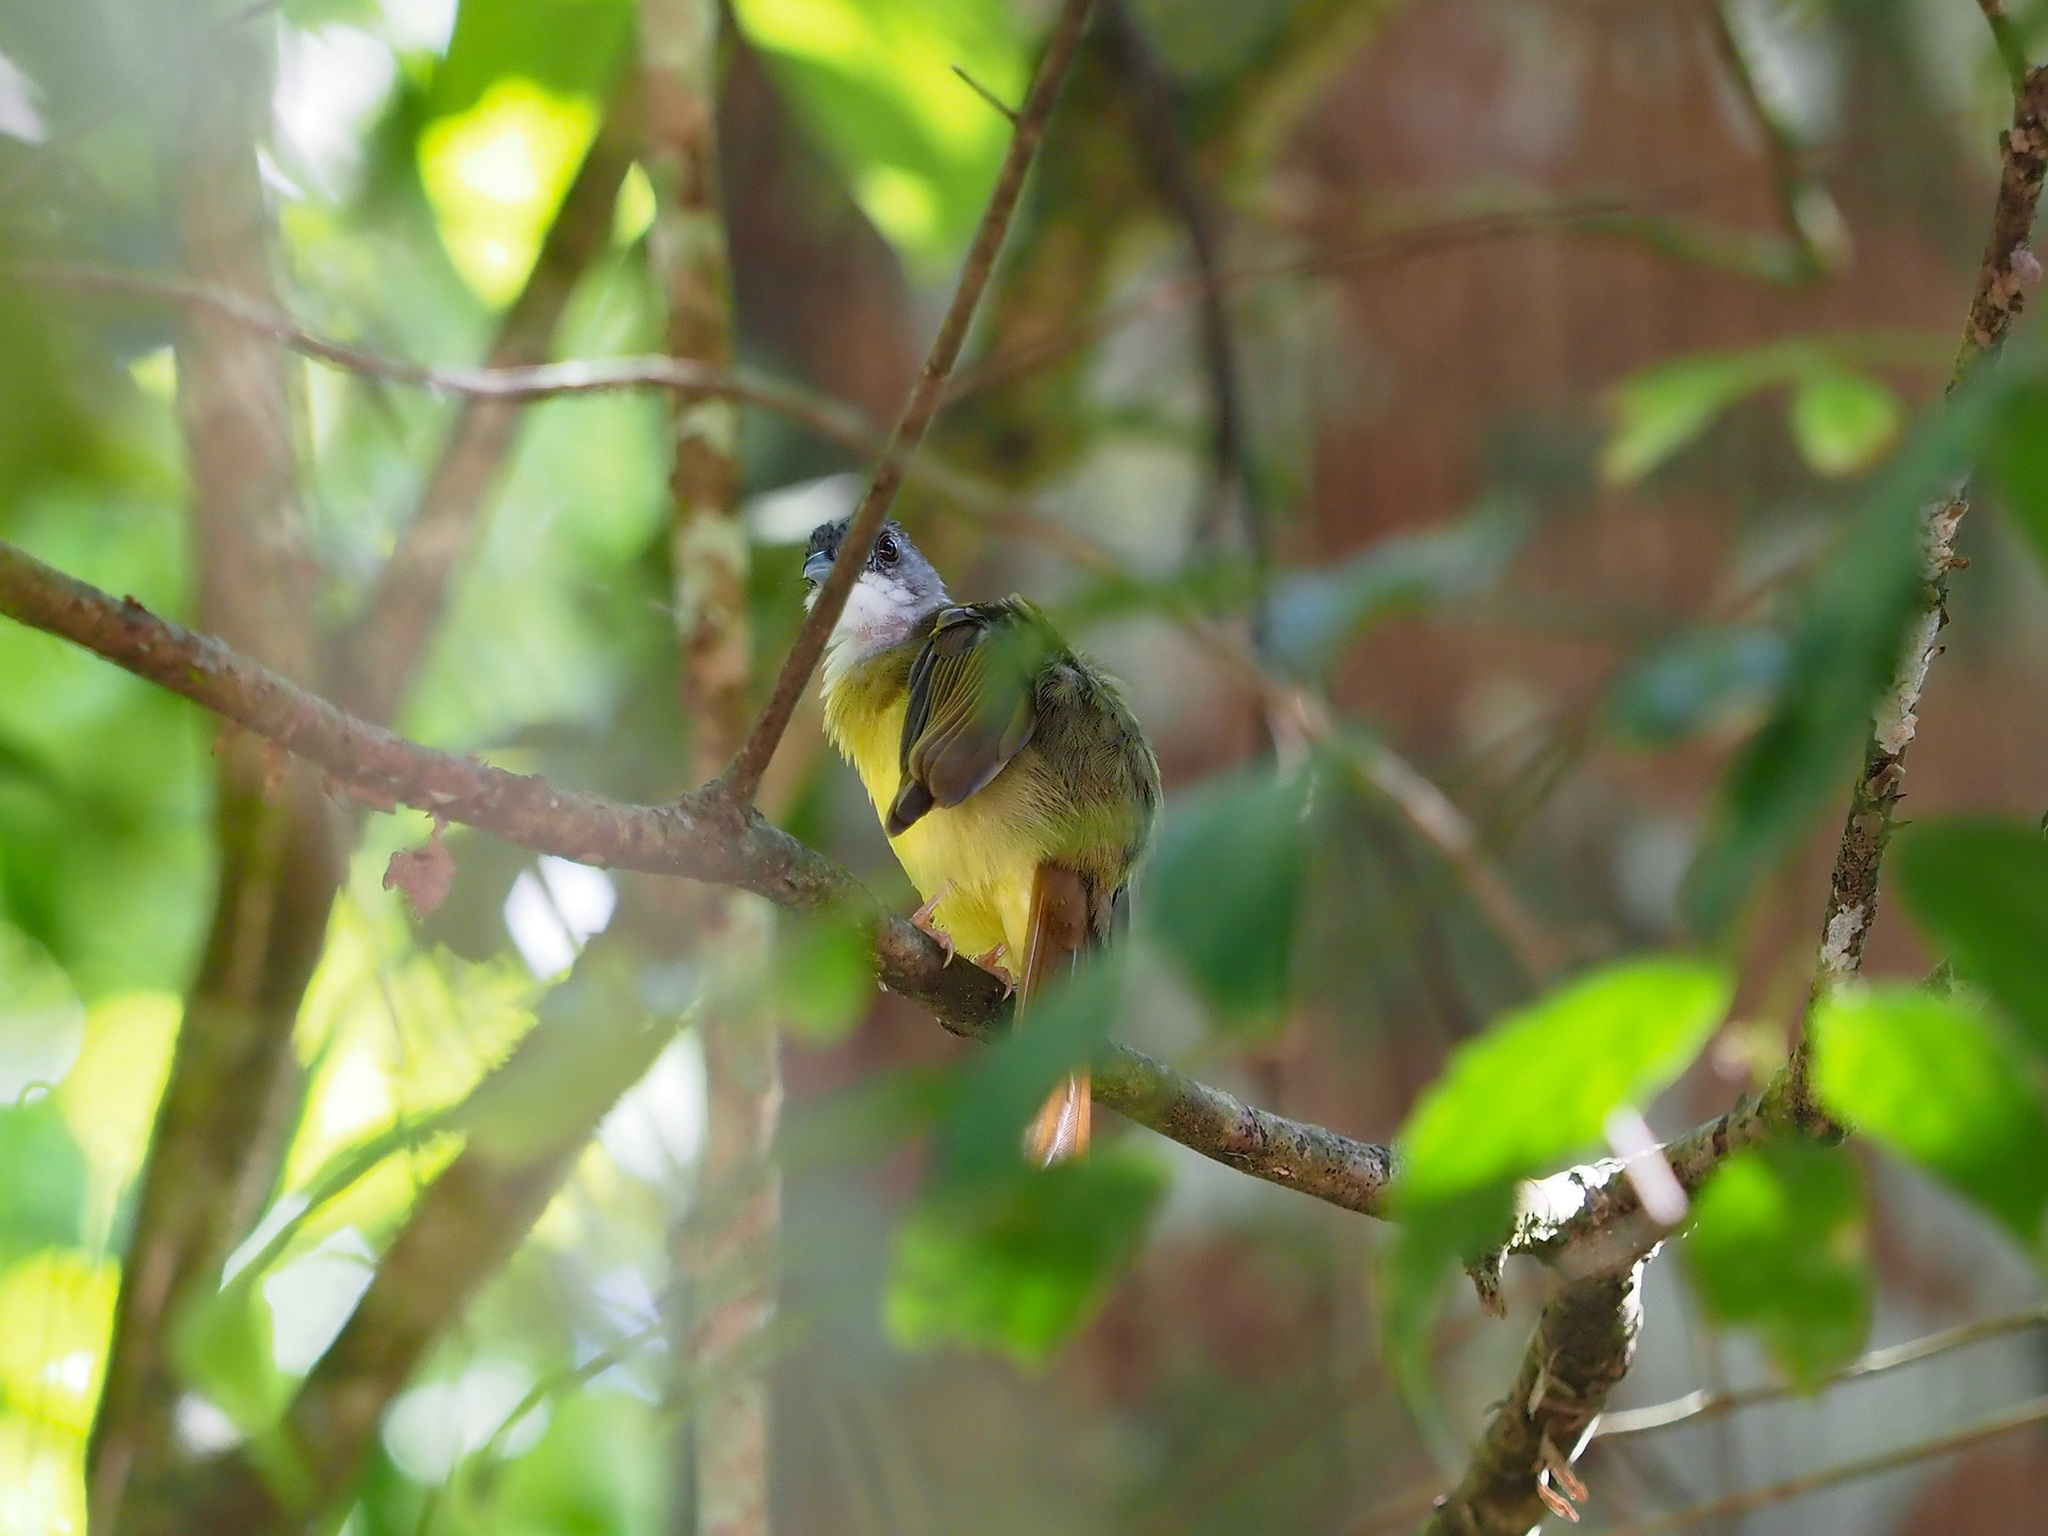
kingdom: Animalia
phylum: Chordata
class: Aves
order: Passeriformes
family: Pycnonotidae
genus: Alophoixus
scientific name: Alophoixus phaeocephalus
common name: Yellow-bellied bulbul
